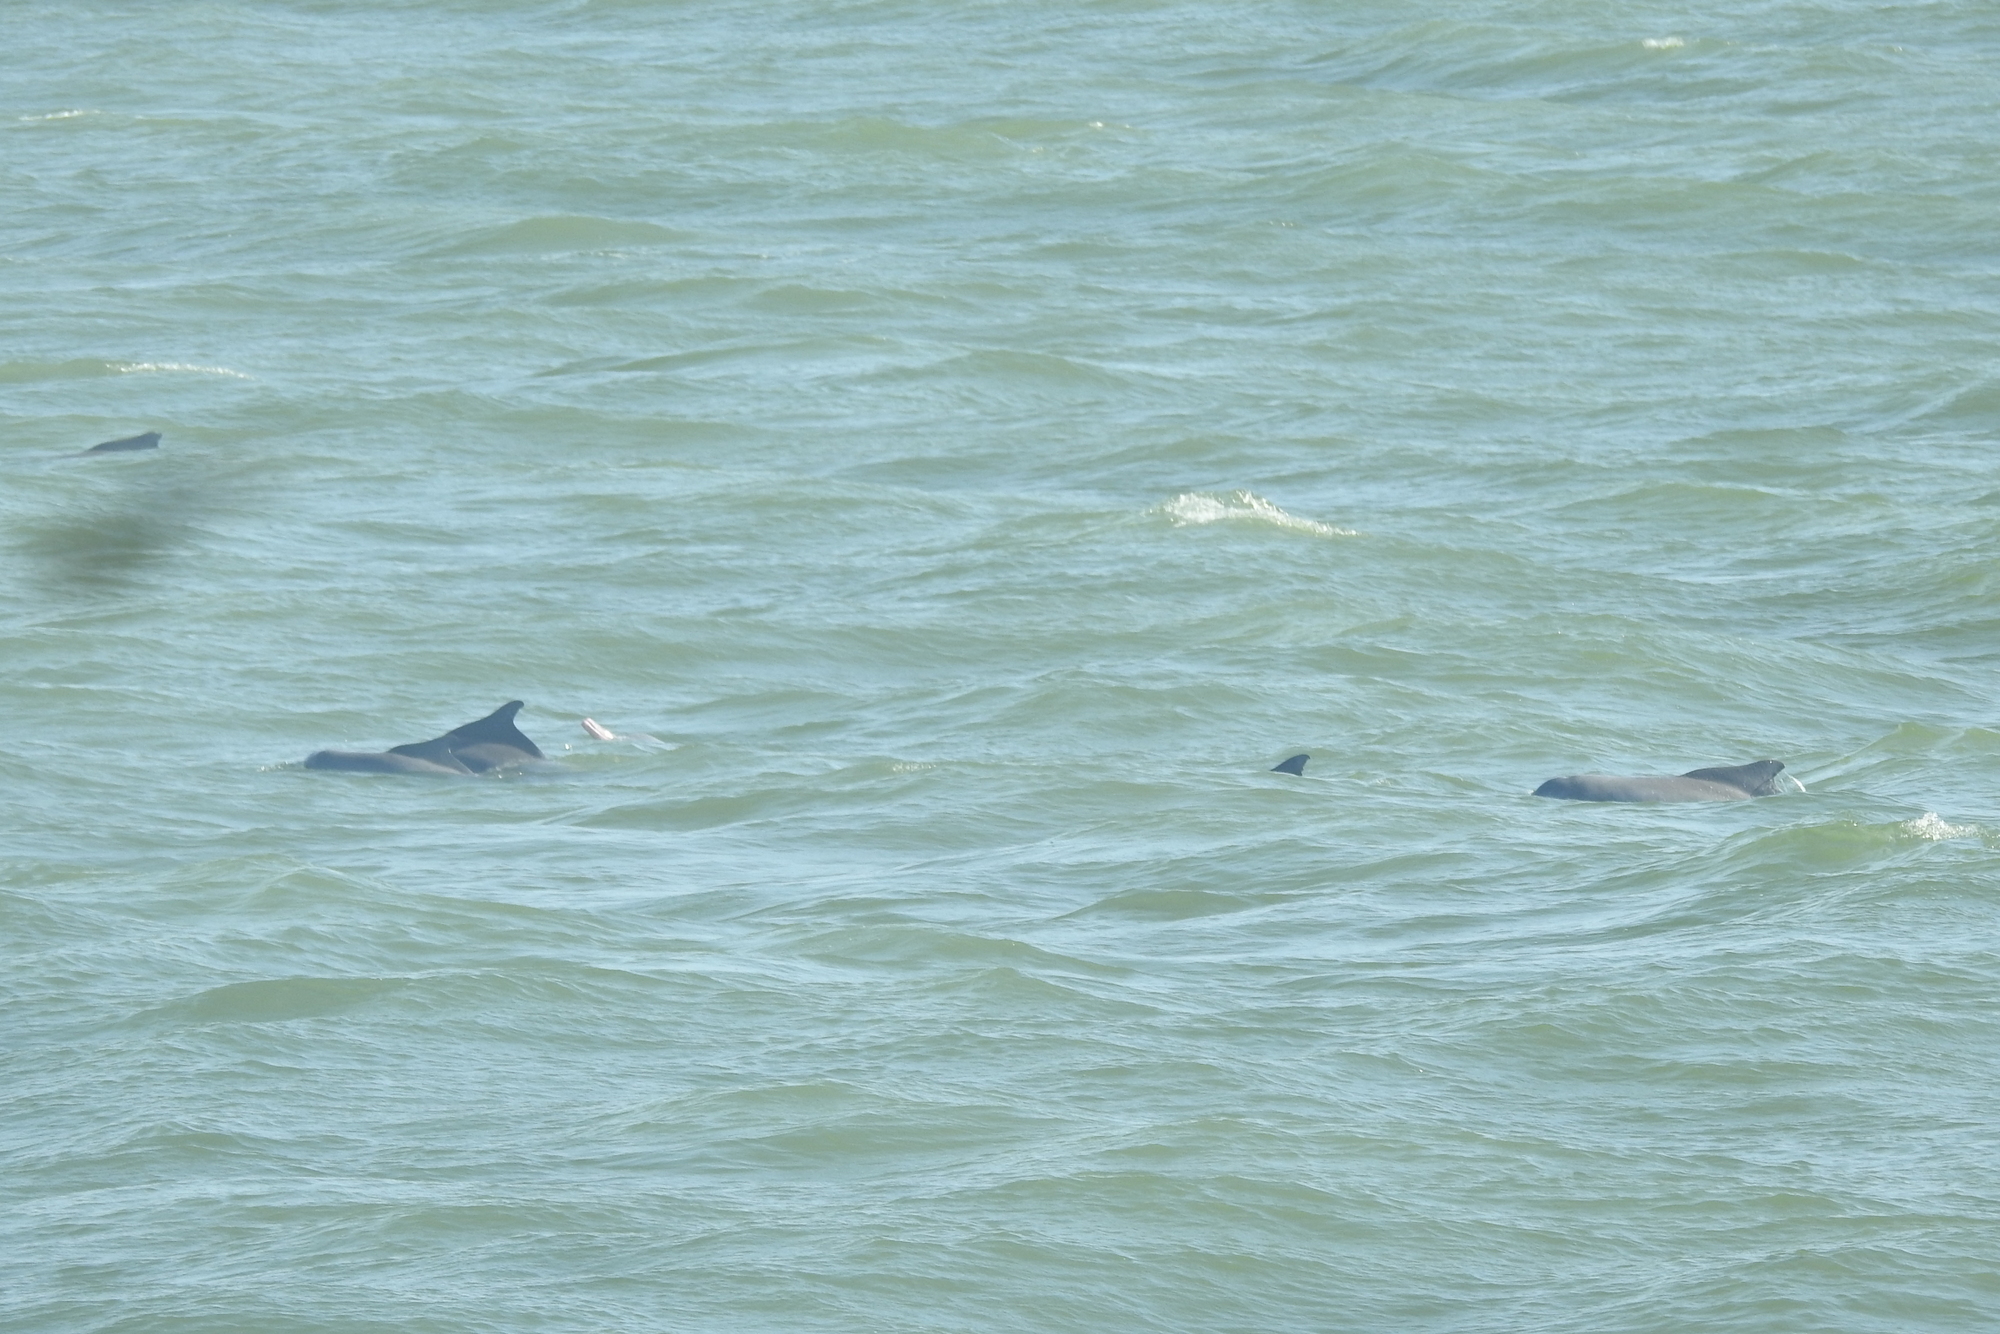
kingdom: Animalia
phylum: Chordata
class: Mammalia
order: Cetacea
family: Delphinidae
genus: Sousa
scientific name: Sousa plumbea
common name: Indian ocean humpback dolphin
